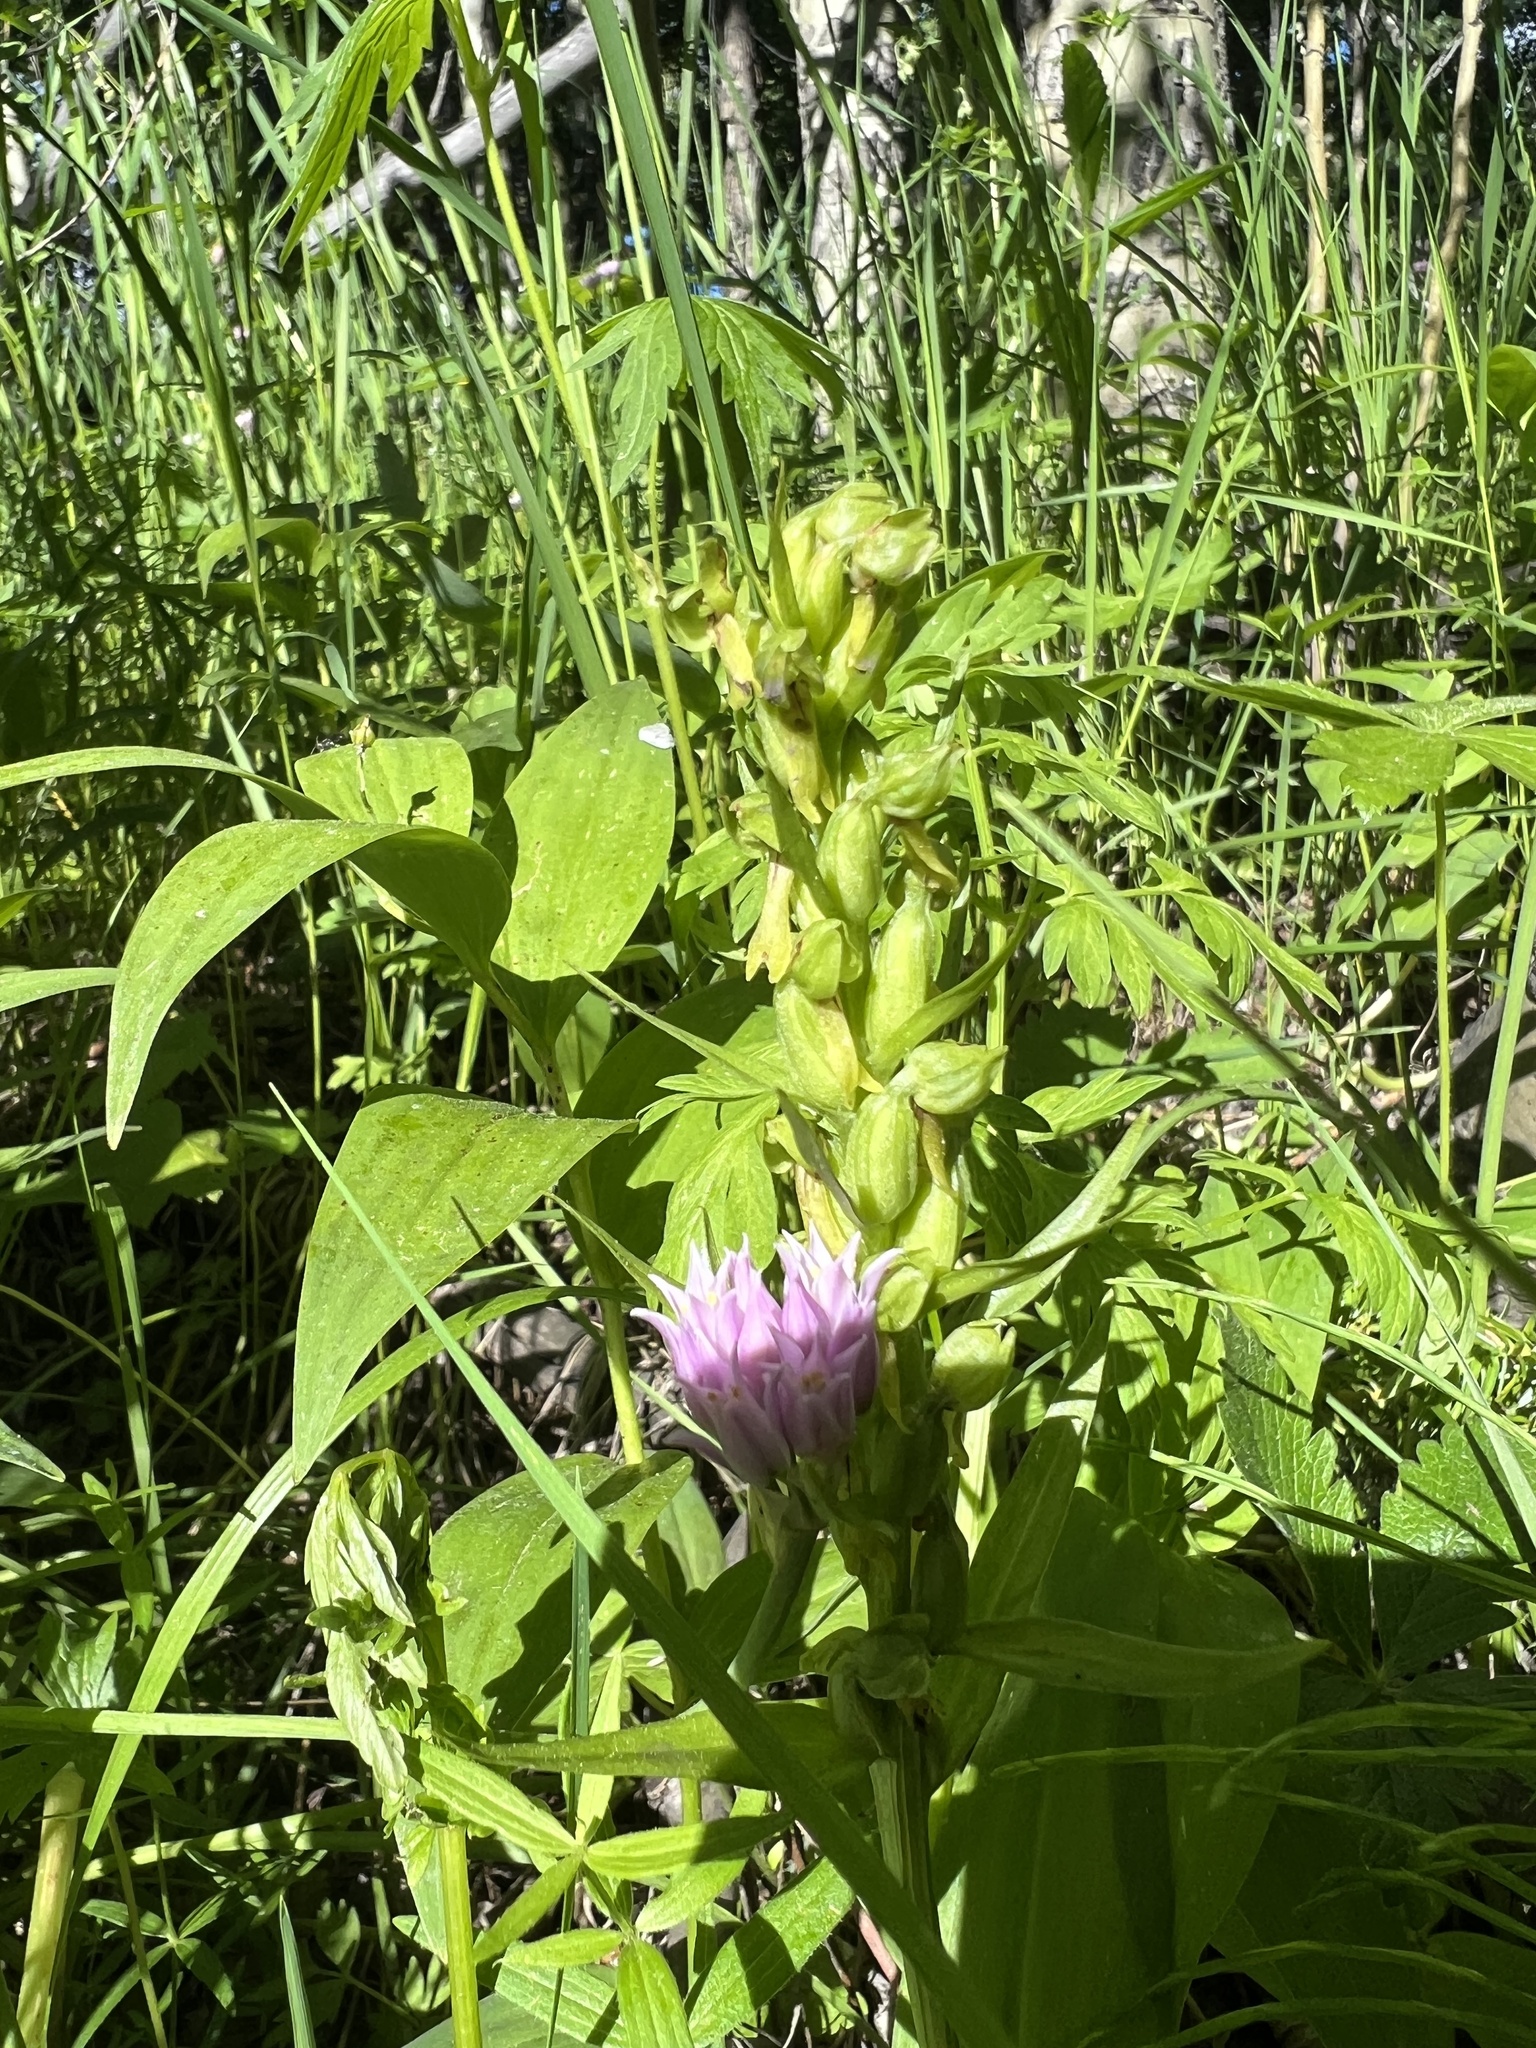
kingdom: Plantae
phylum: Tracheophyta
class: Liliopsida
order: Asparagales
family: Orchidaceae
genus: Dactylorhiza
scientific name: Dactylorhiza viridis
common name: Longbract frog orchid
